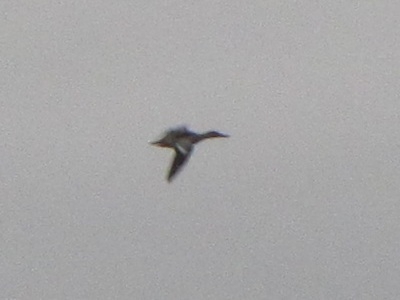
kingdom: Animalia
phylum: Chordata
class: Aves
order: Anseriformes
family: Anatidae
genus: Spatula
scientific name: Spatula discors
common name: Blue-winged teal
